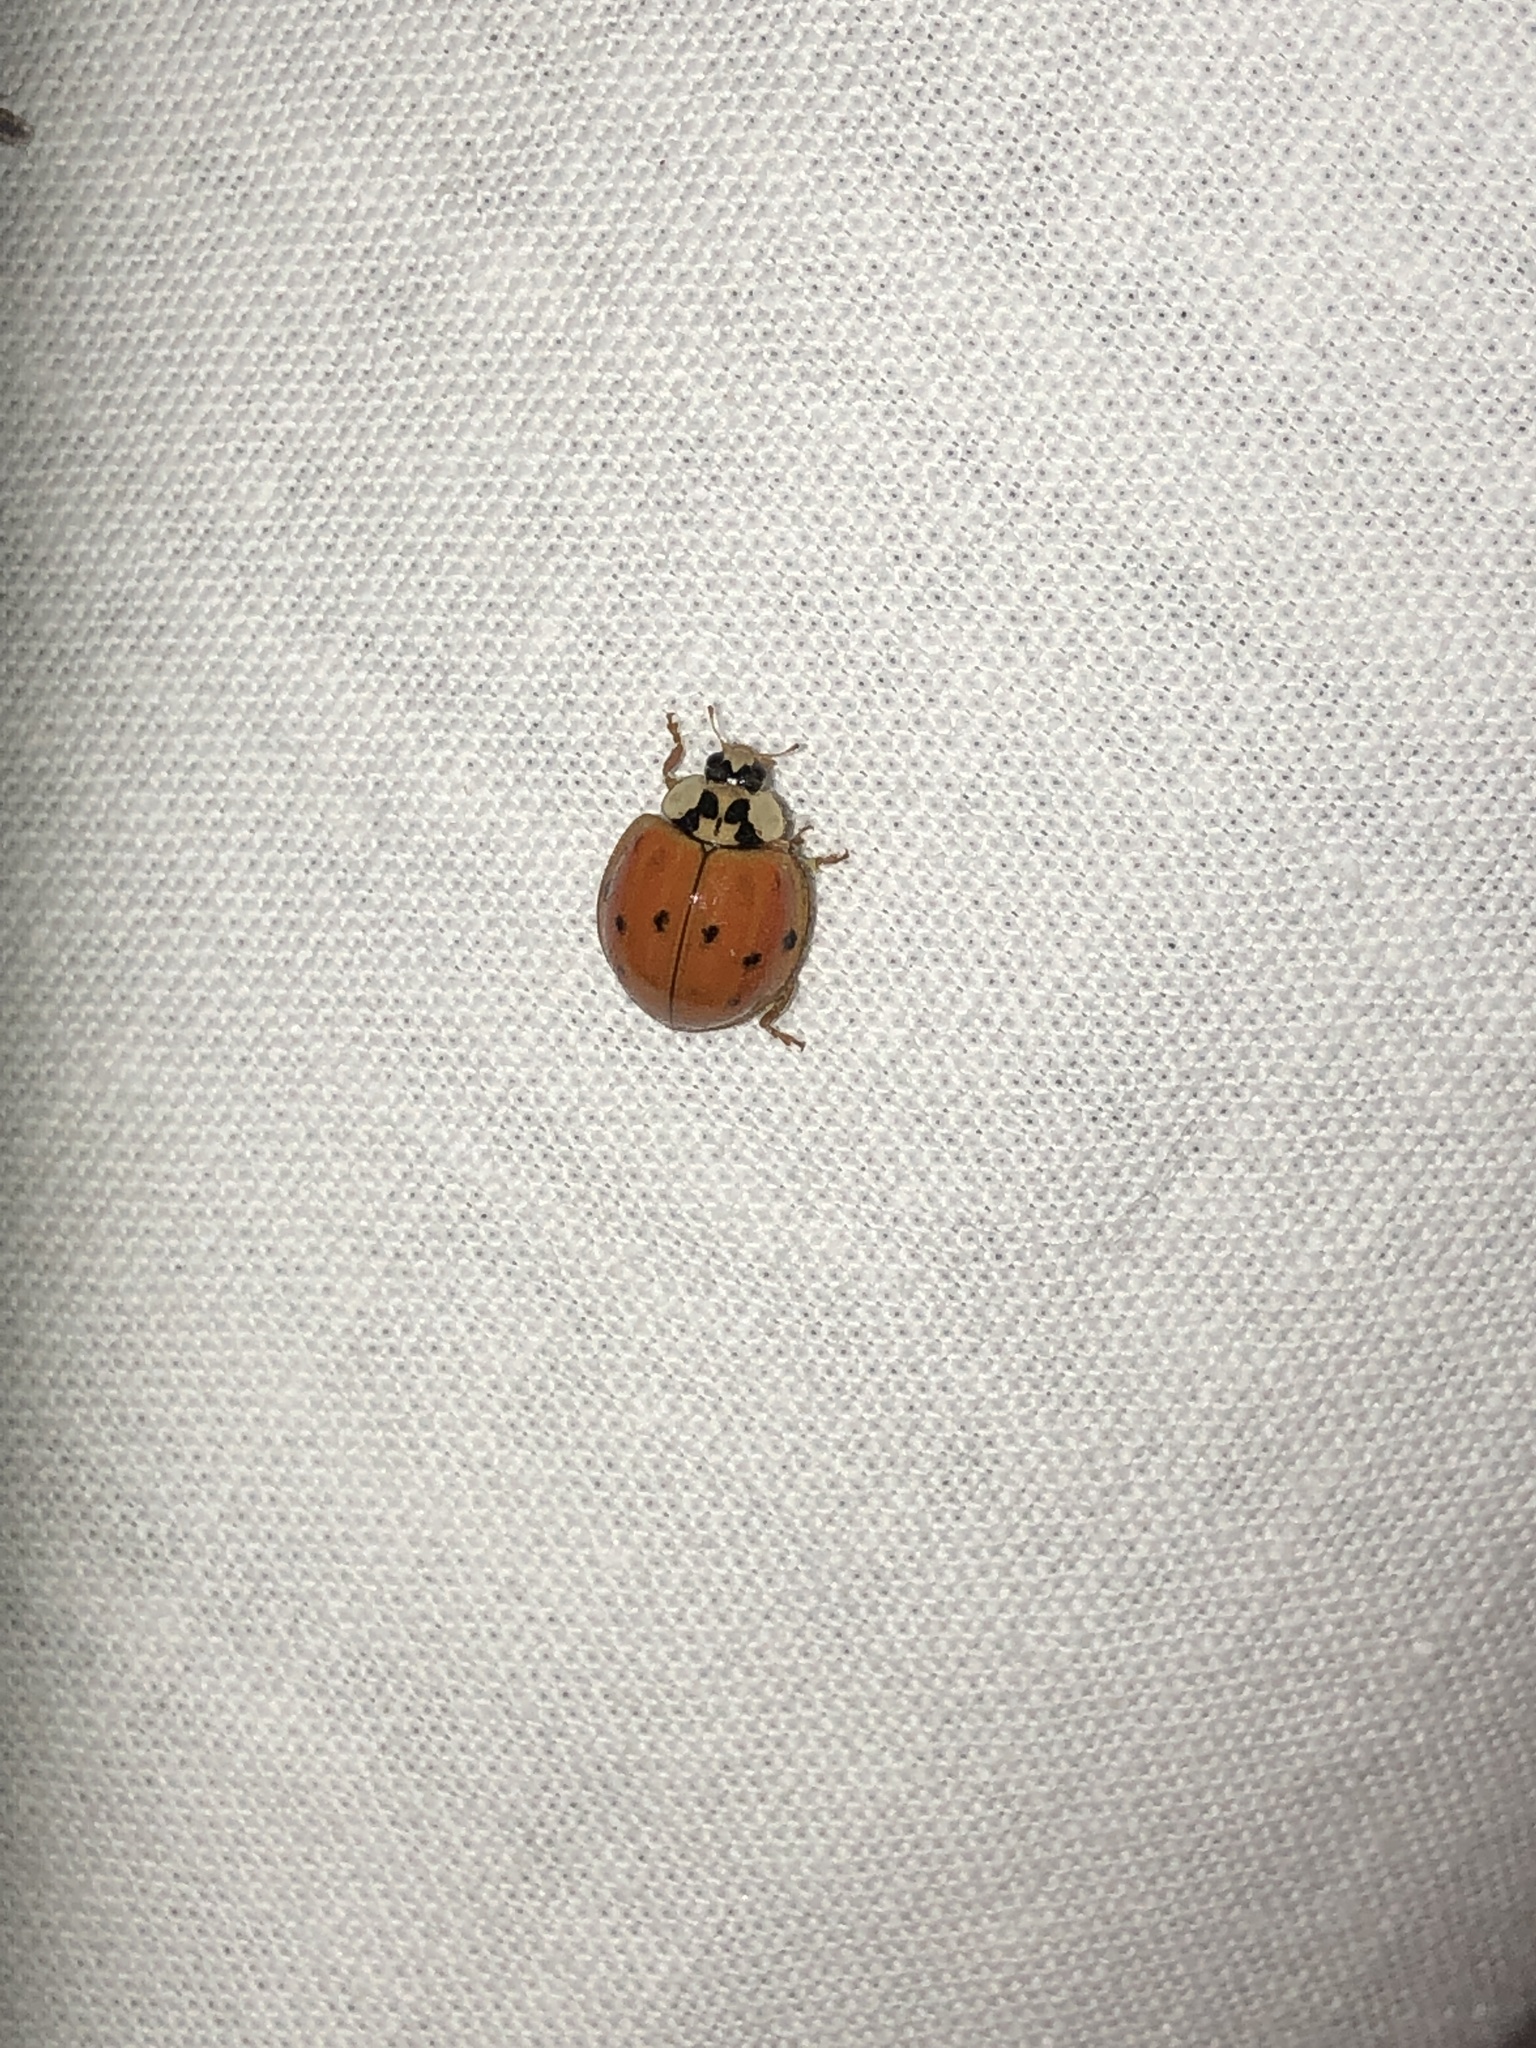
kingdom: Animalia
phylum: Arthropoda
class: Insecta
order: Coleoptera
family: Coccinellidae
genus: Harmonia
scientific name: Harmonia axyridis
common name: Harlequin ladybird
